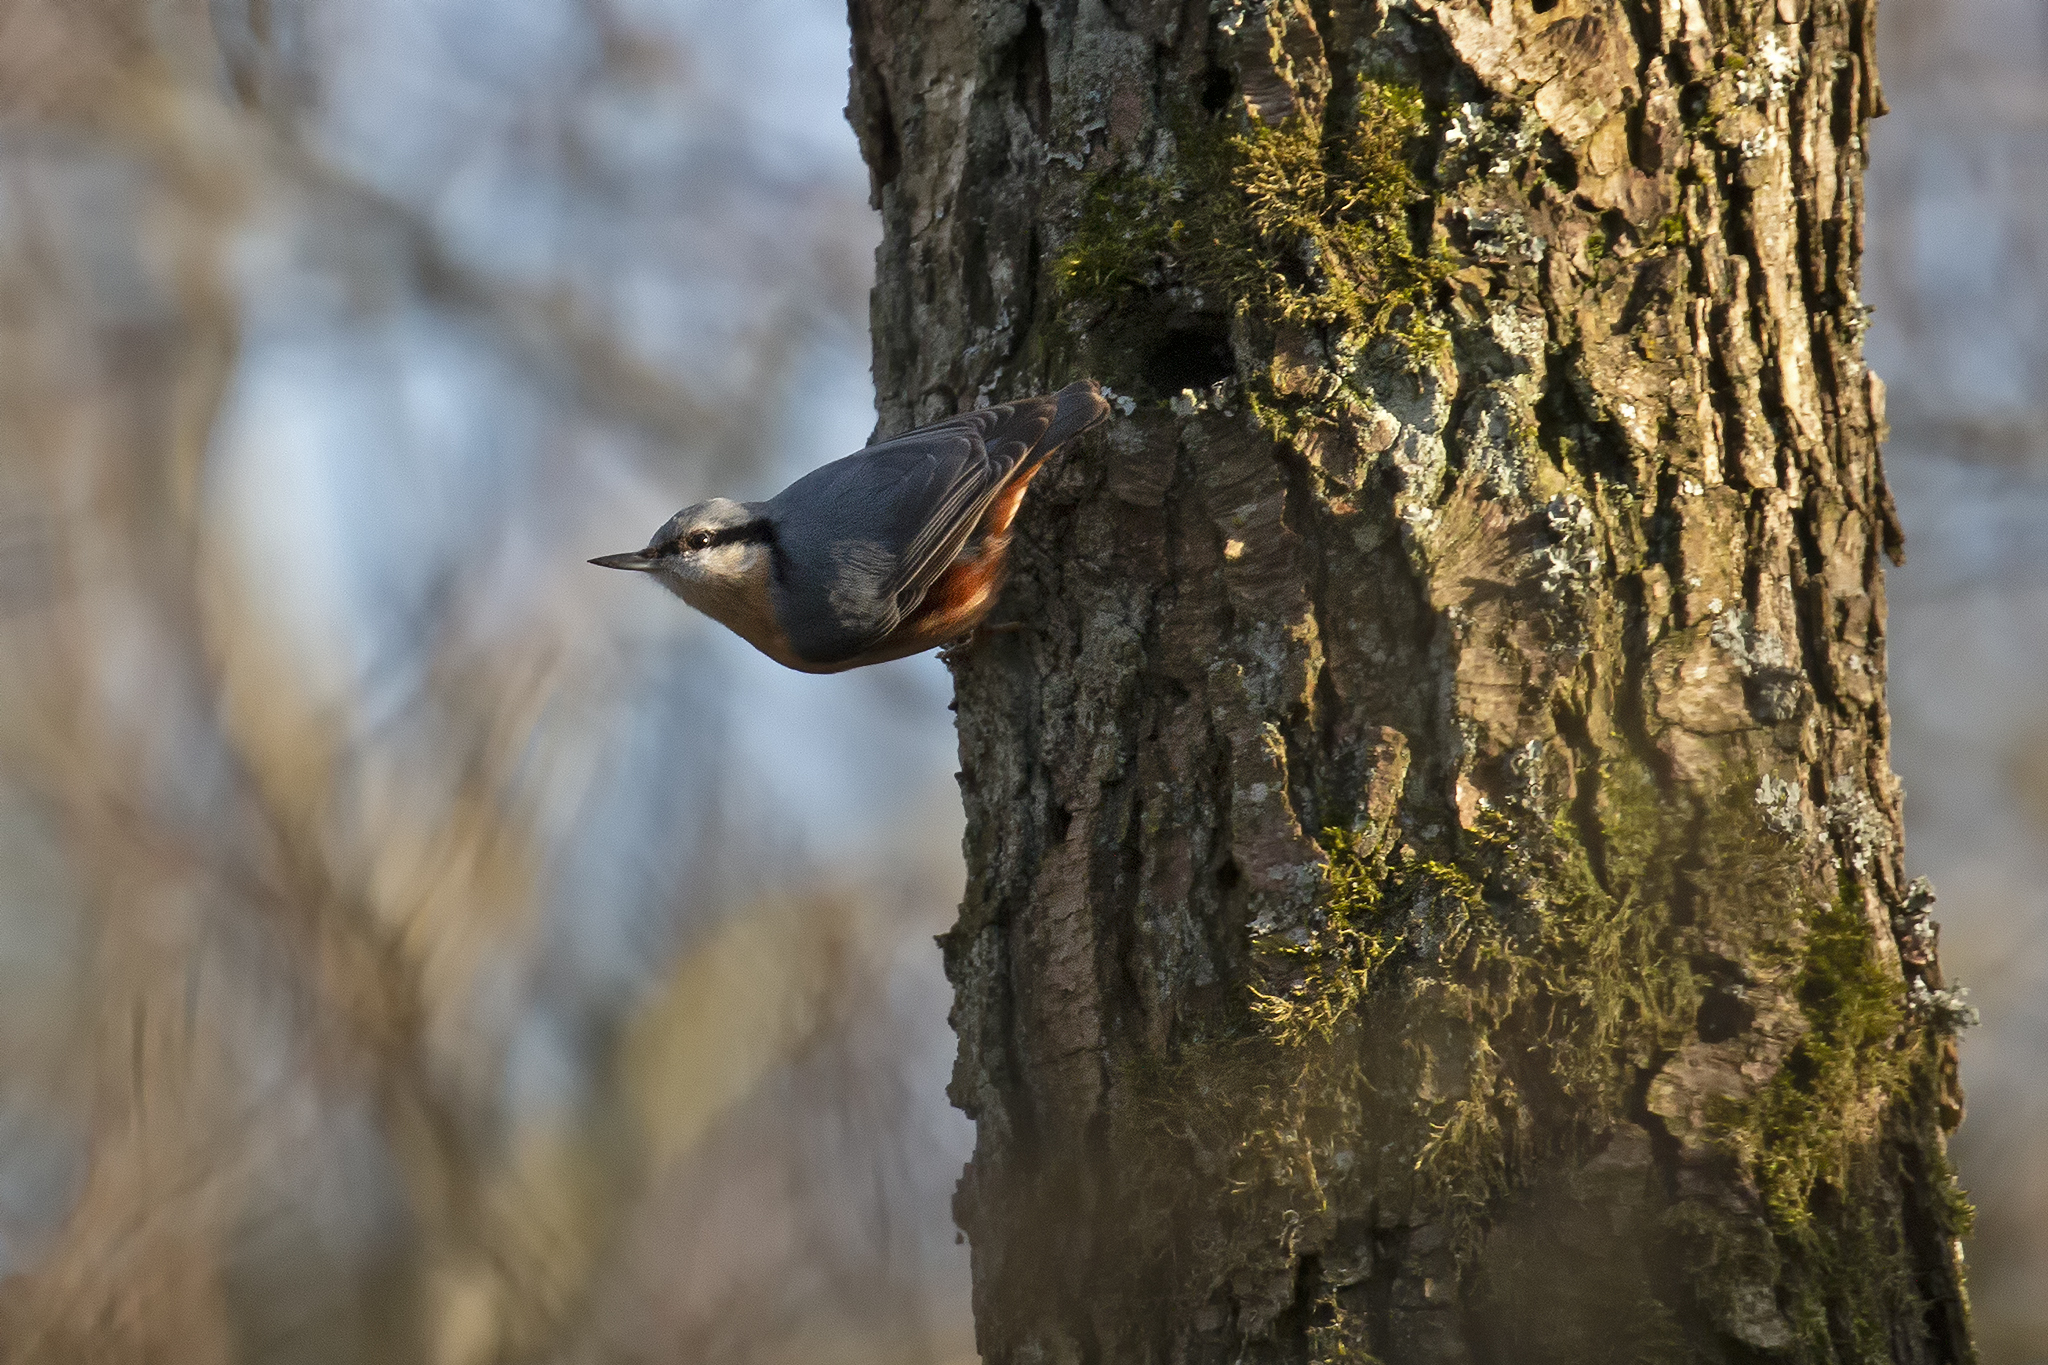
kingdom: Animalia
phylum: Chordata
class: Aves
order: Passeriformes
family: Sittidae
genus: Sitta
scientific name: Sitta europaea
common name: Eurasian nuthatch
